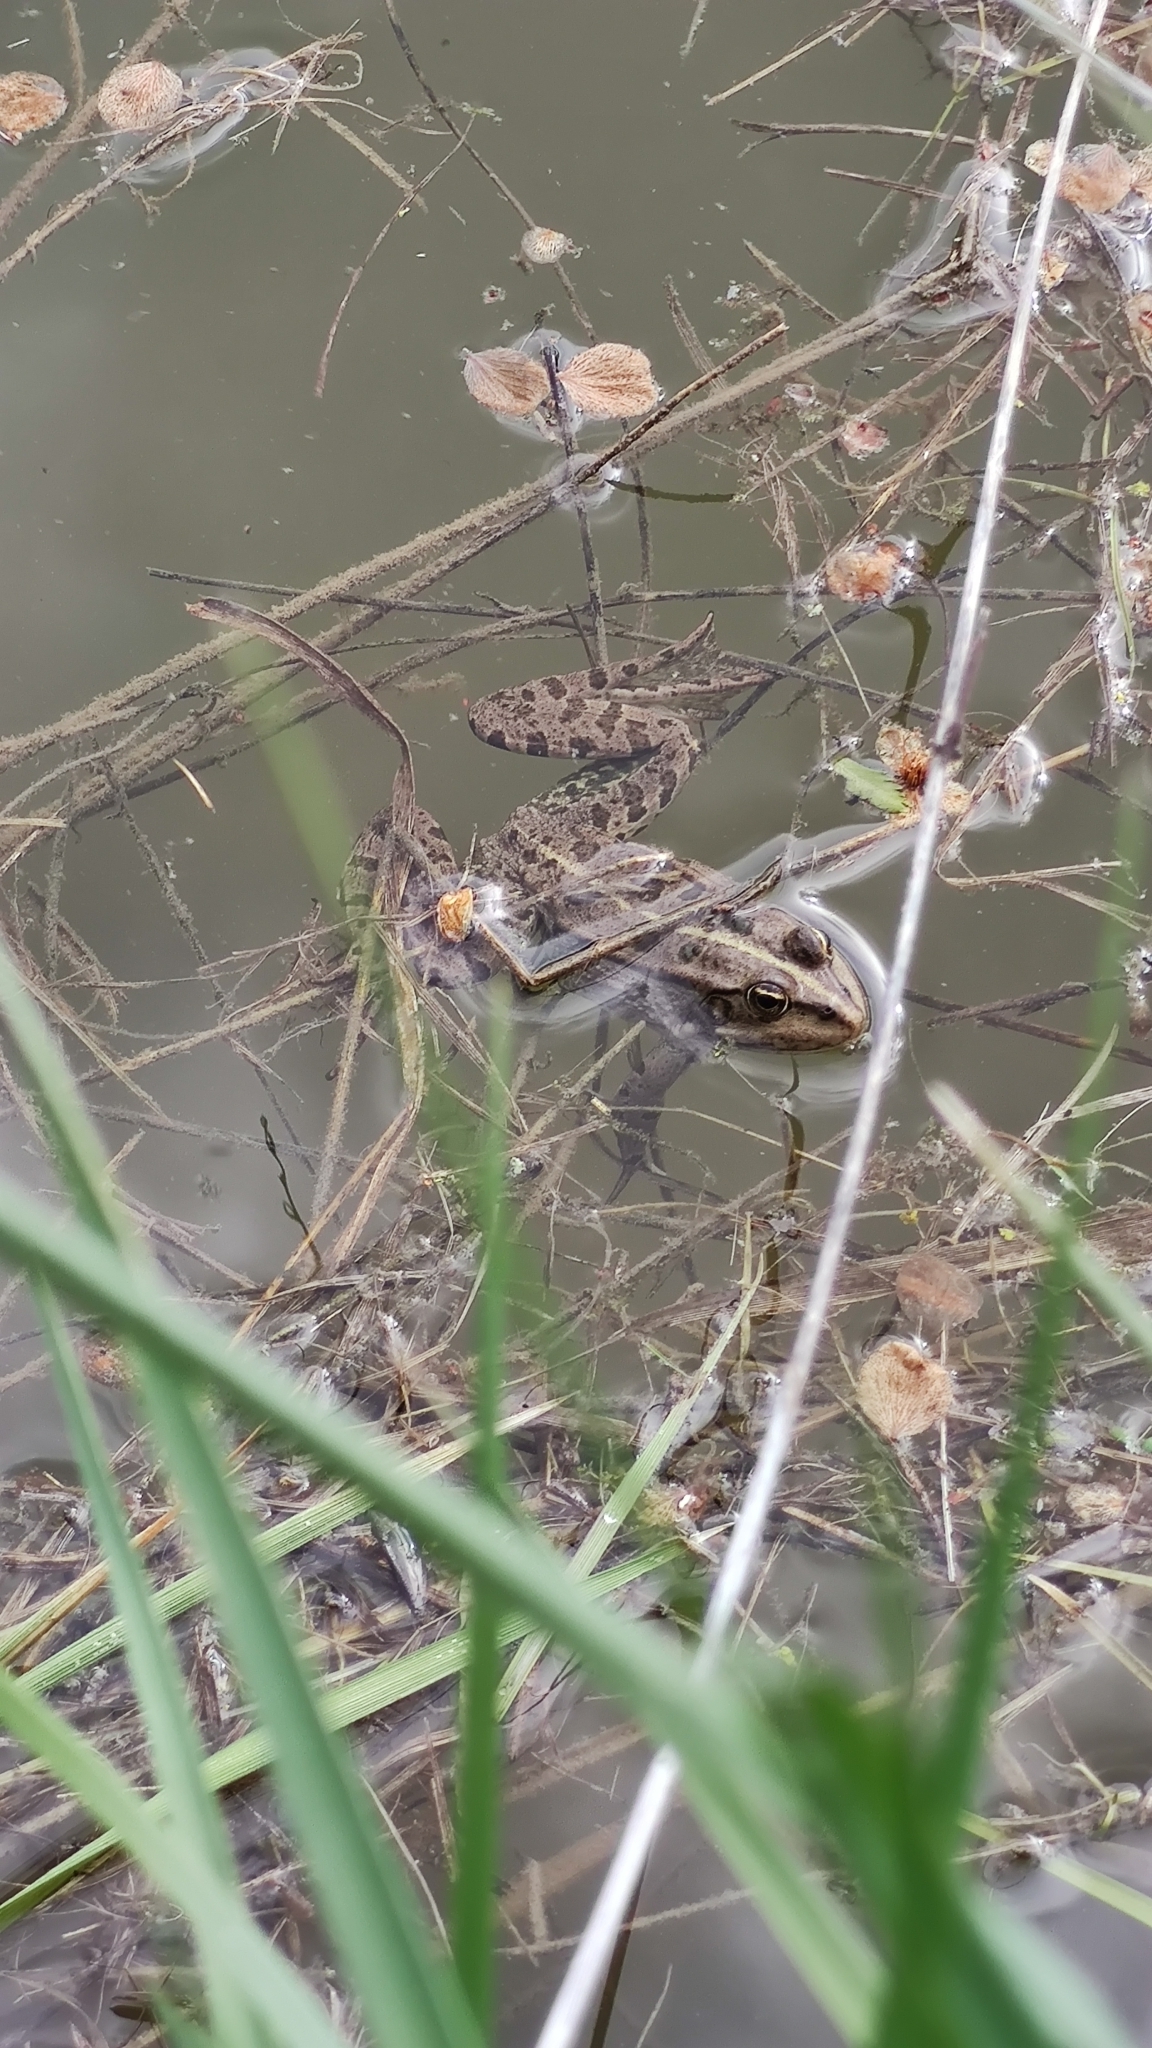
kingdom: Animalia
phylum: Chordata
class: Amphibia
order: Anura
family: Ranidae
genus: Pelophylax
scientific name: Pelophylax ridibundus
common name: Marsh frog
